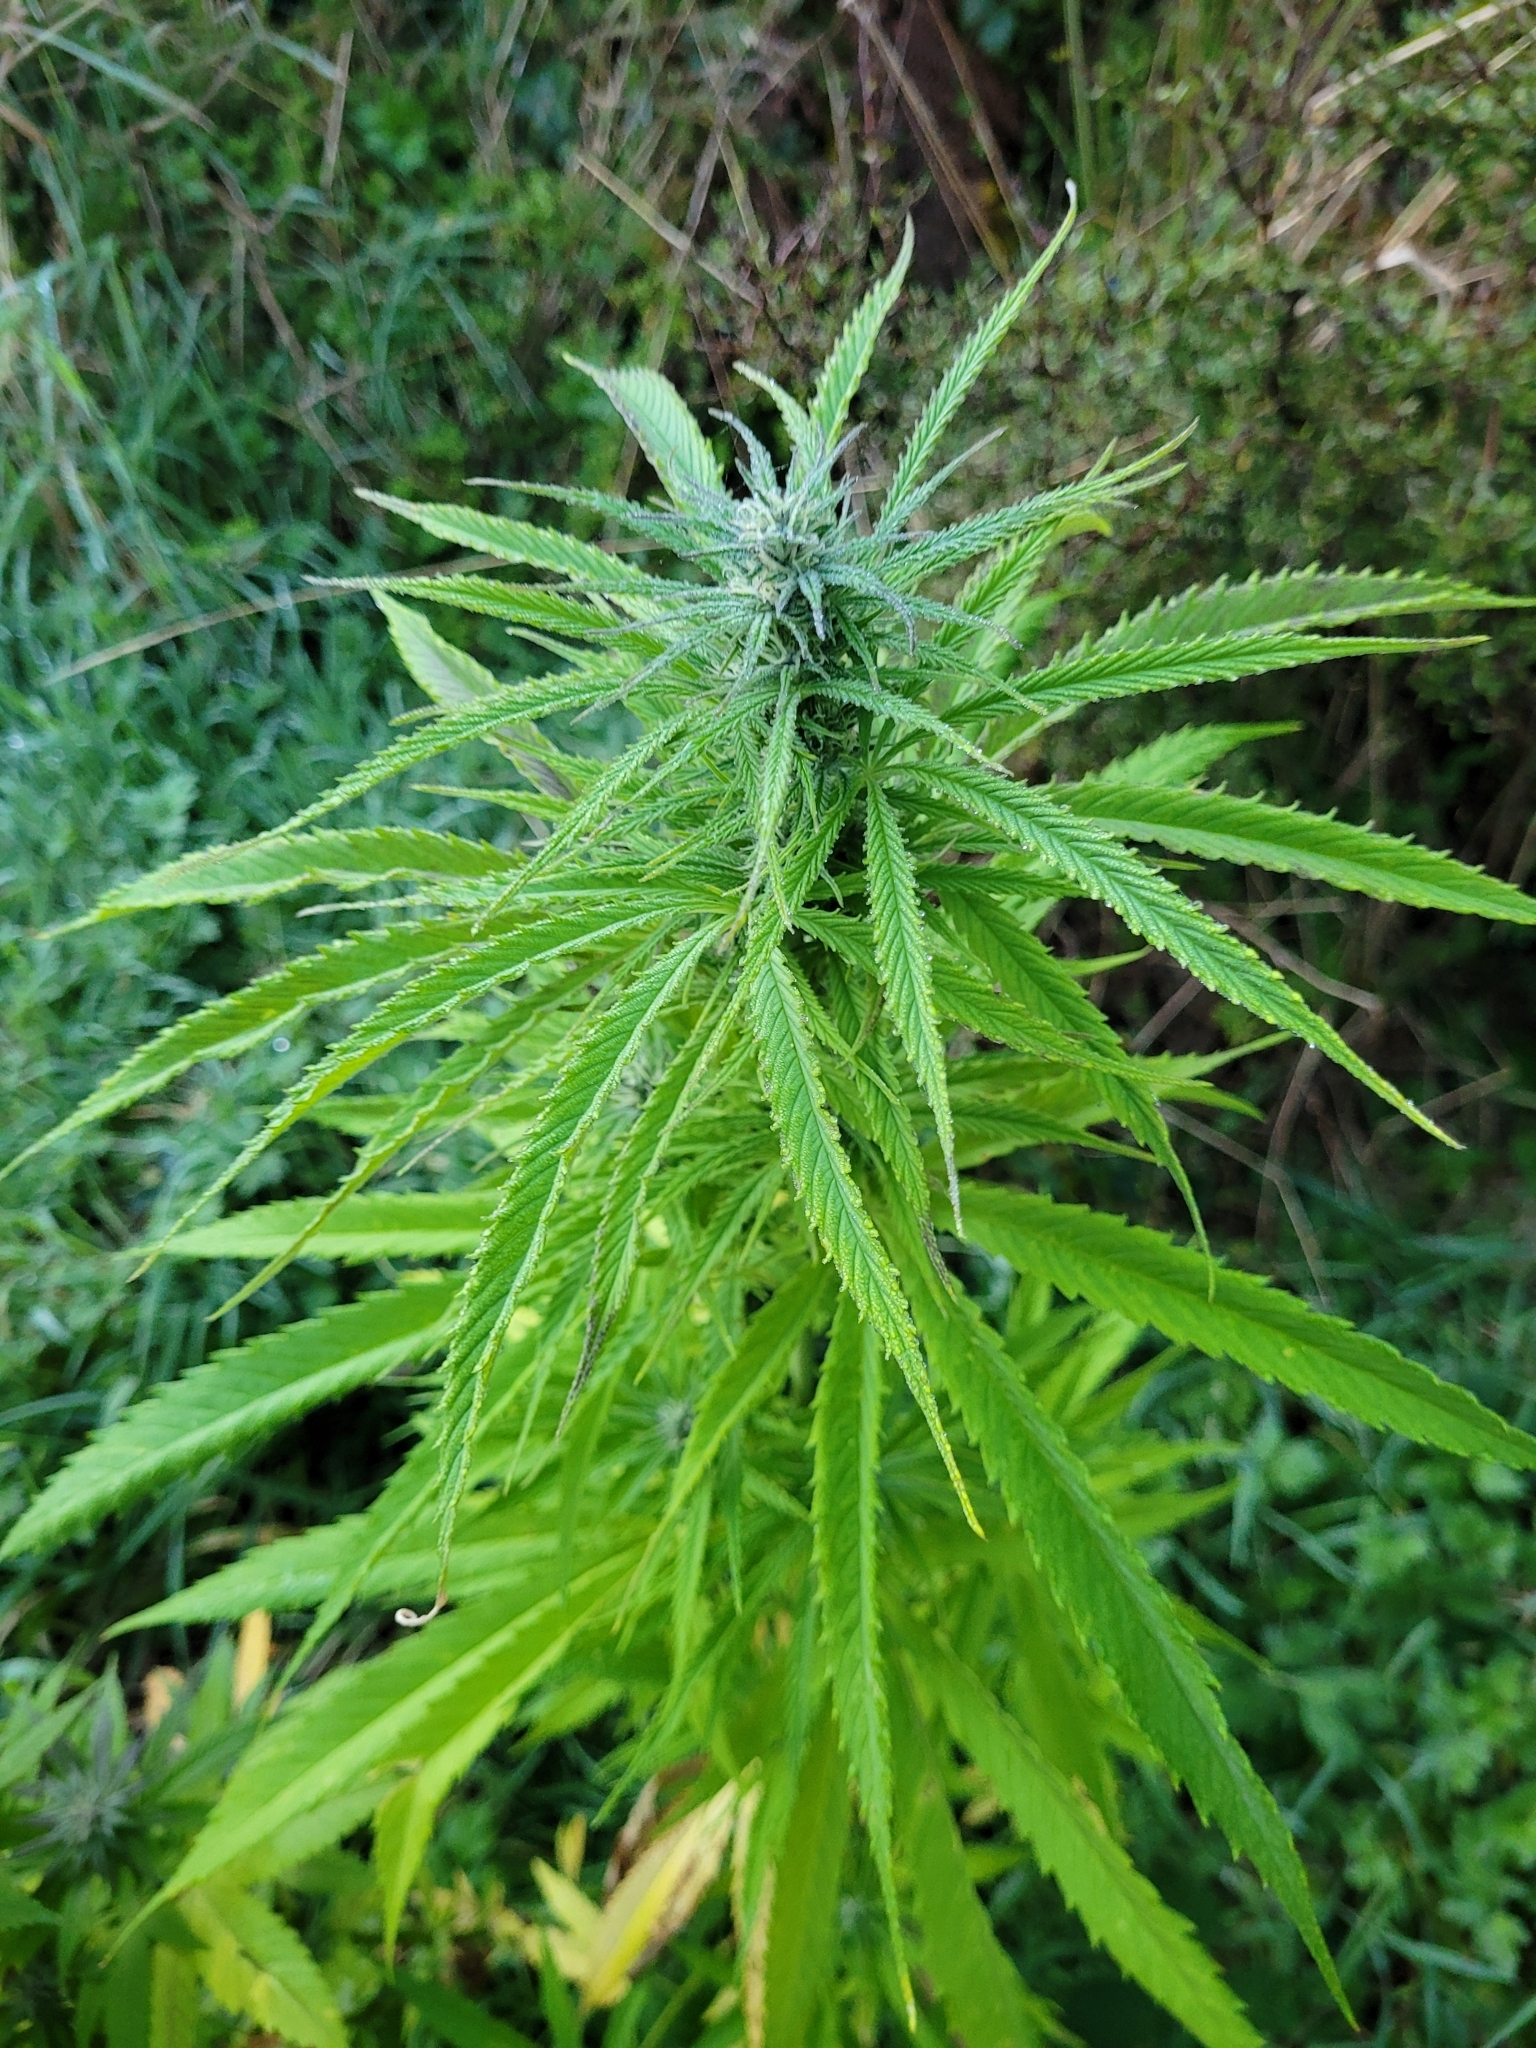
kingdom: Plantae
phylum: Tracheophyta
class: Magnoliopsida
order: Rosales
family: Cannabaceae
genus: Cannabis
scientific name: Cannabis sativa
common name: Hemp
